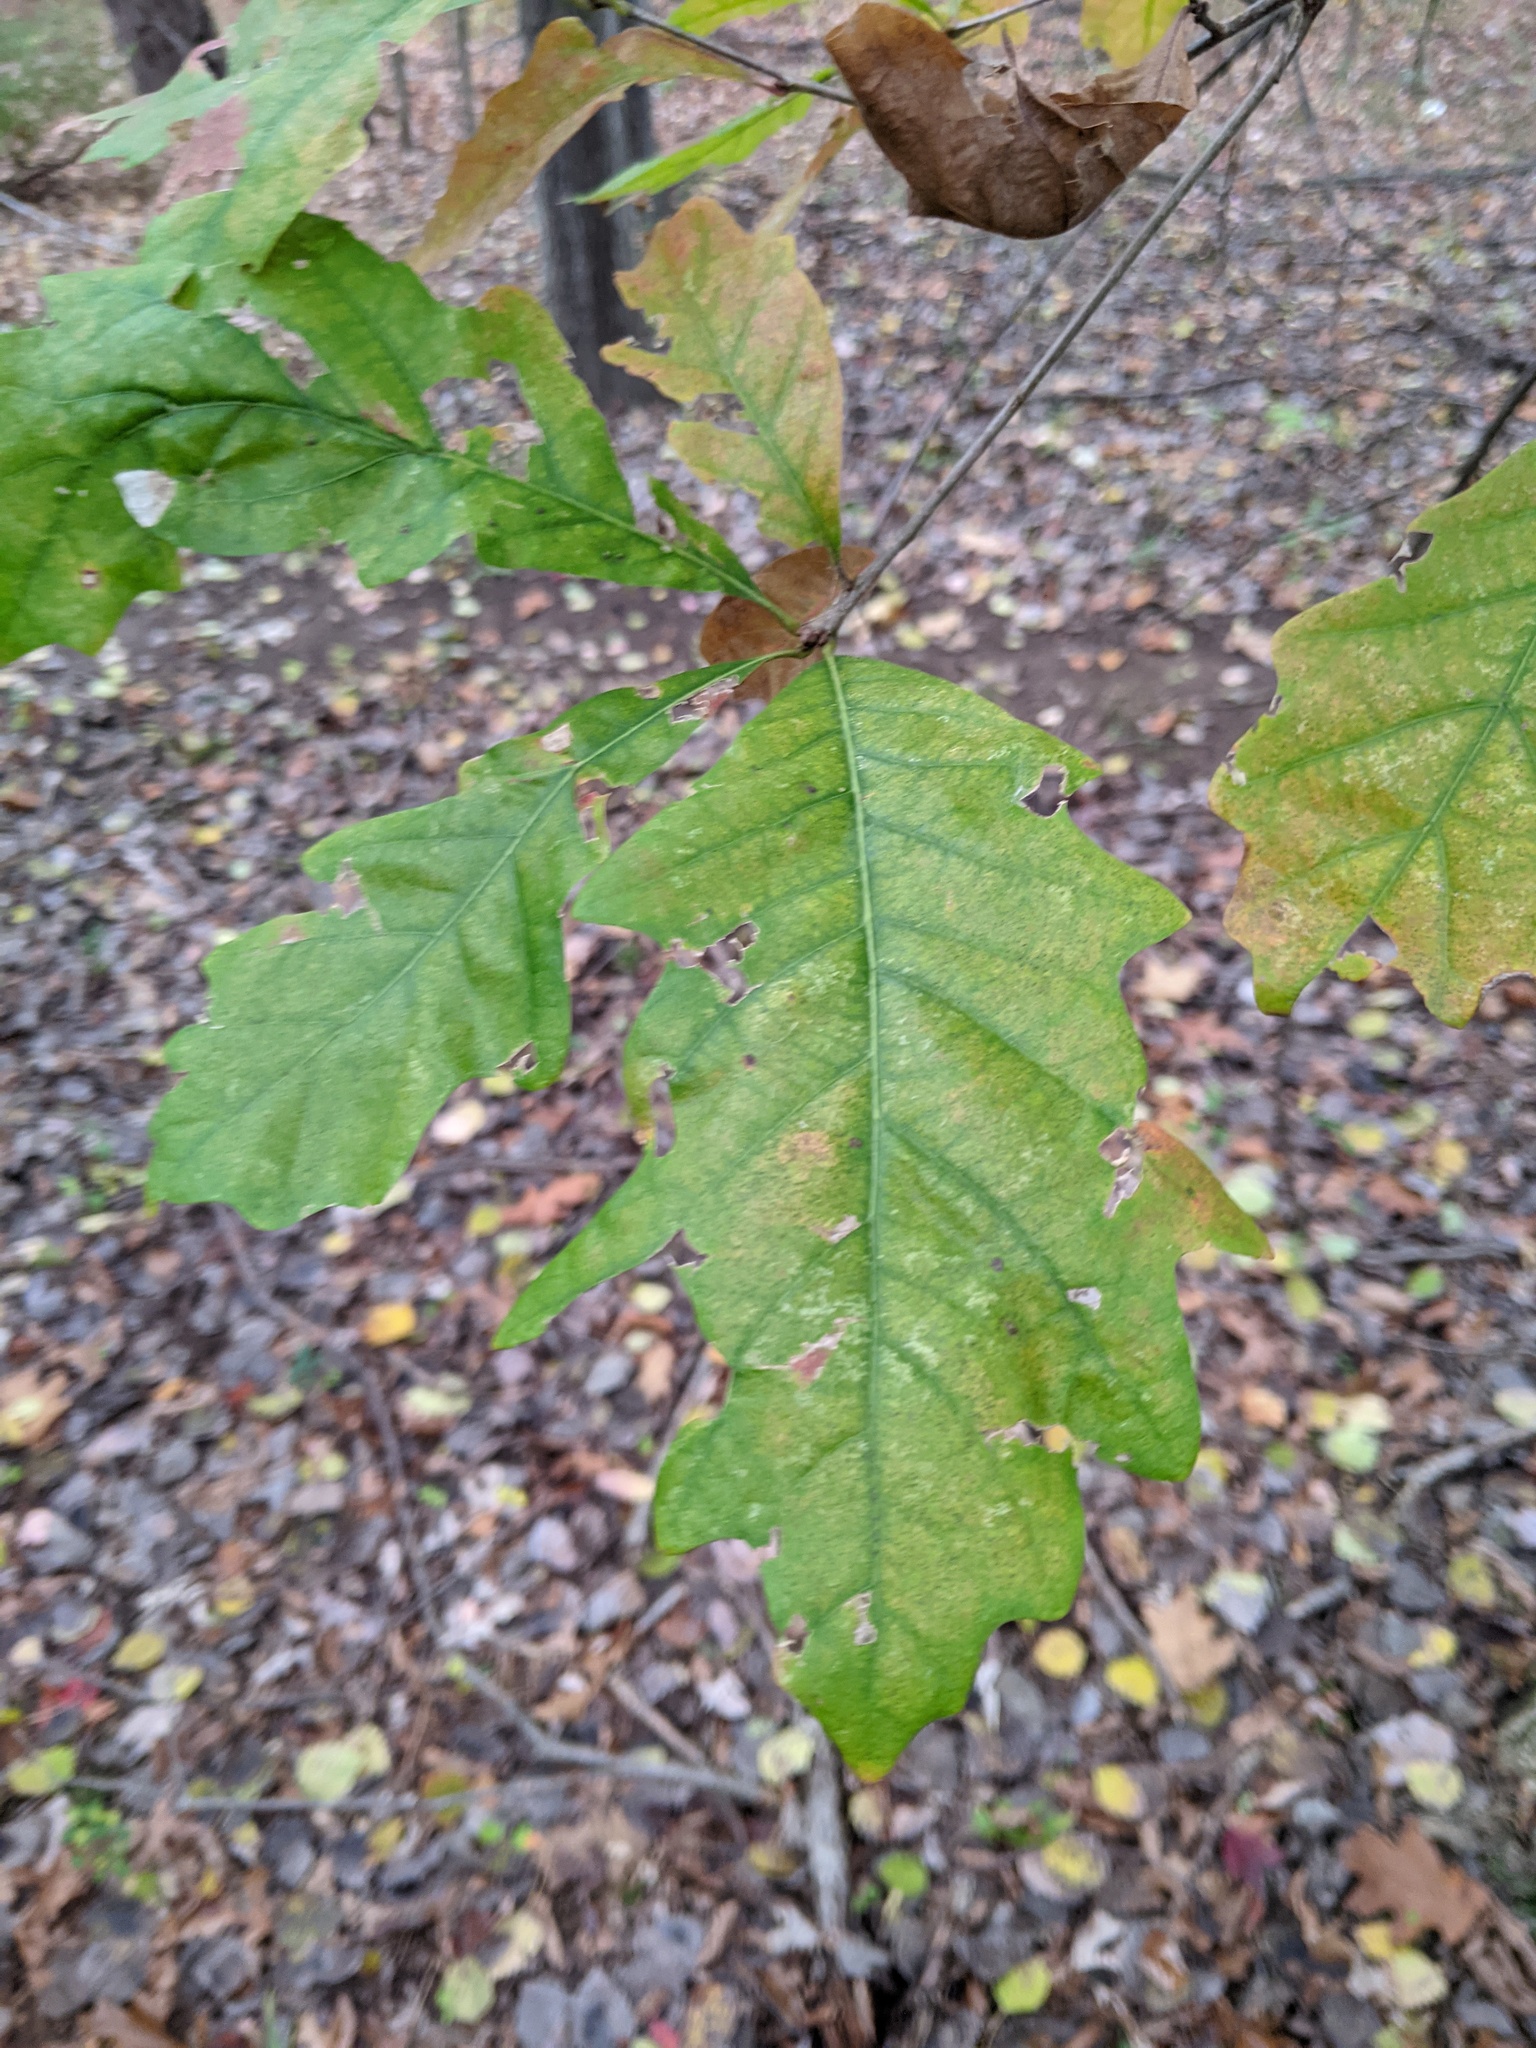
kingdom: Plantae
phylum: Tracheophyta
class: Magnoliopsida
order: Fagales
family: Fagaceae
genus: Quercus
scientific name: Quercus bicolor
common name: Swamp white oak
